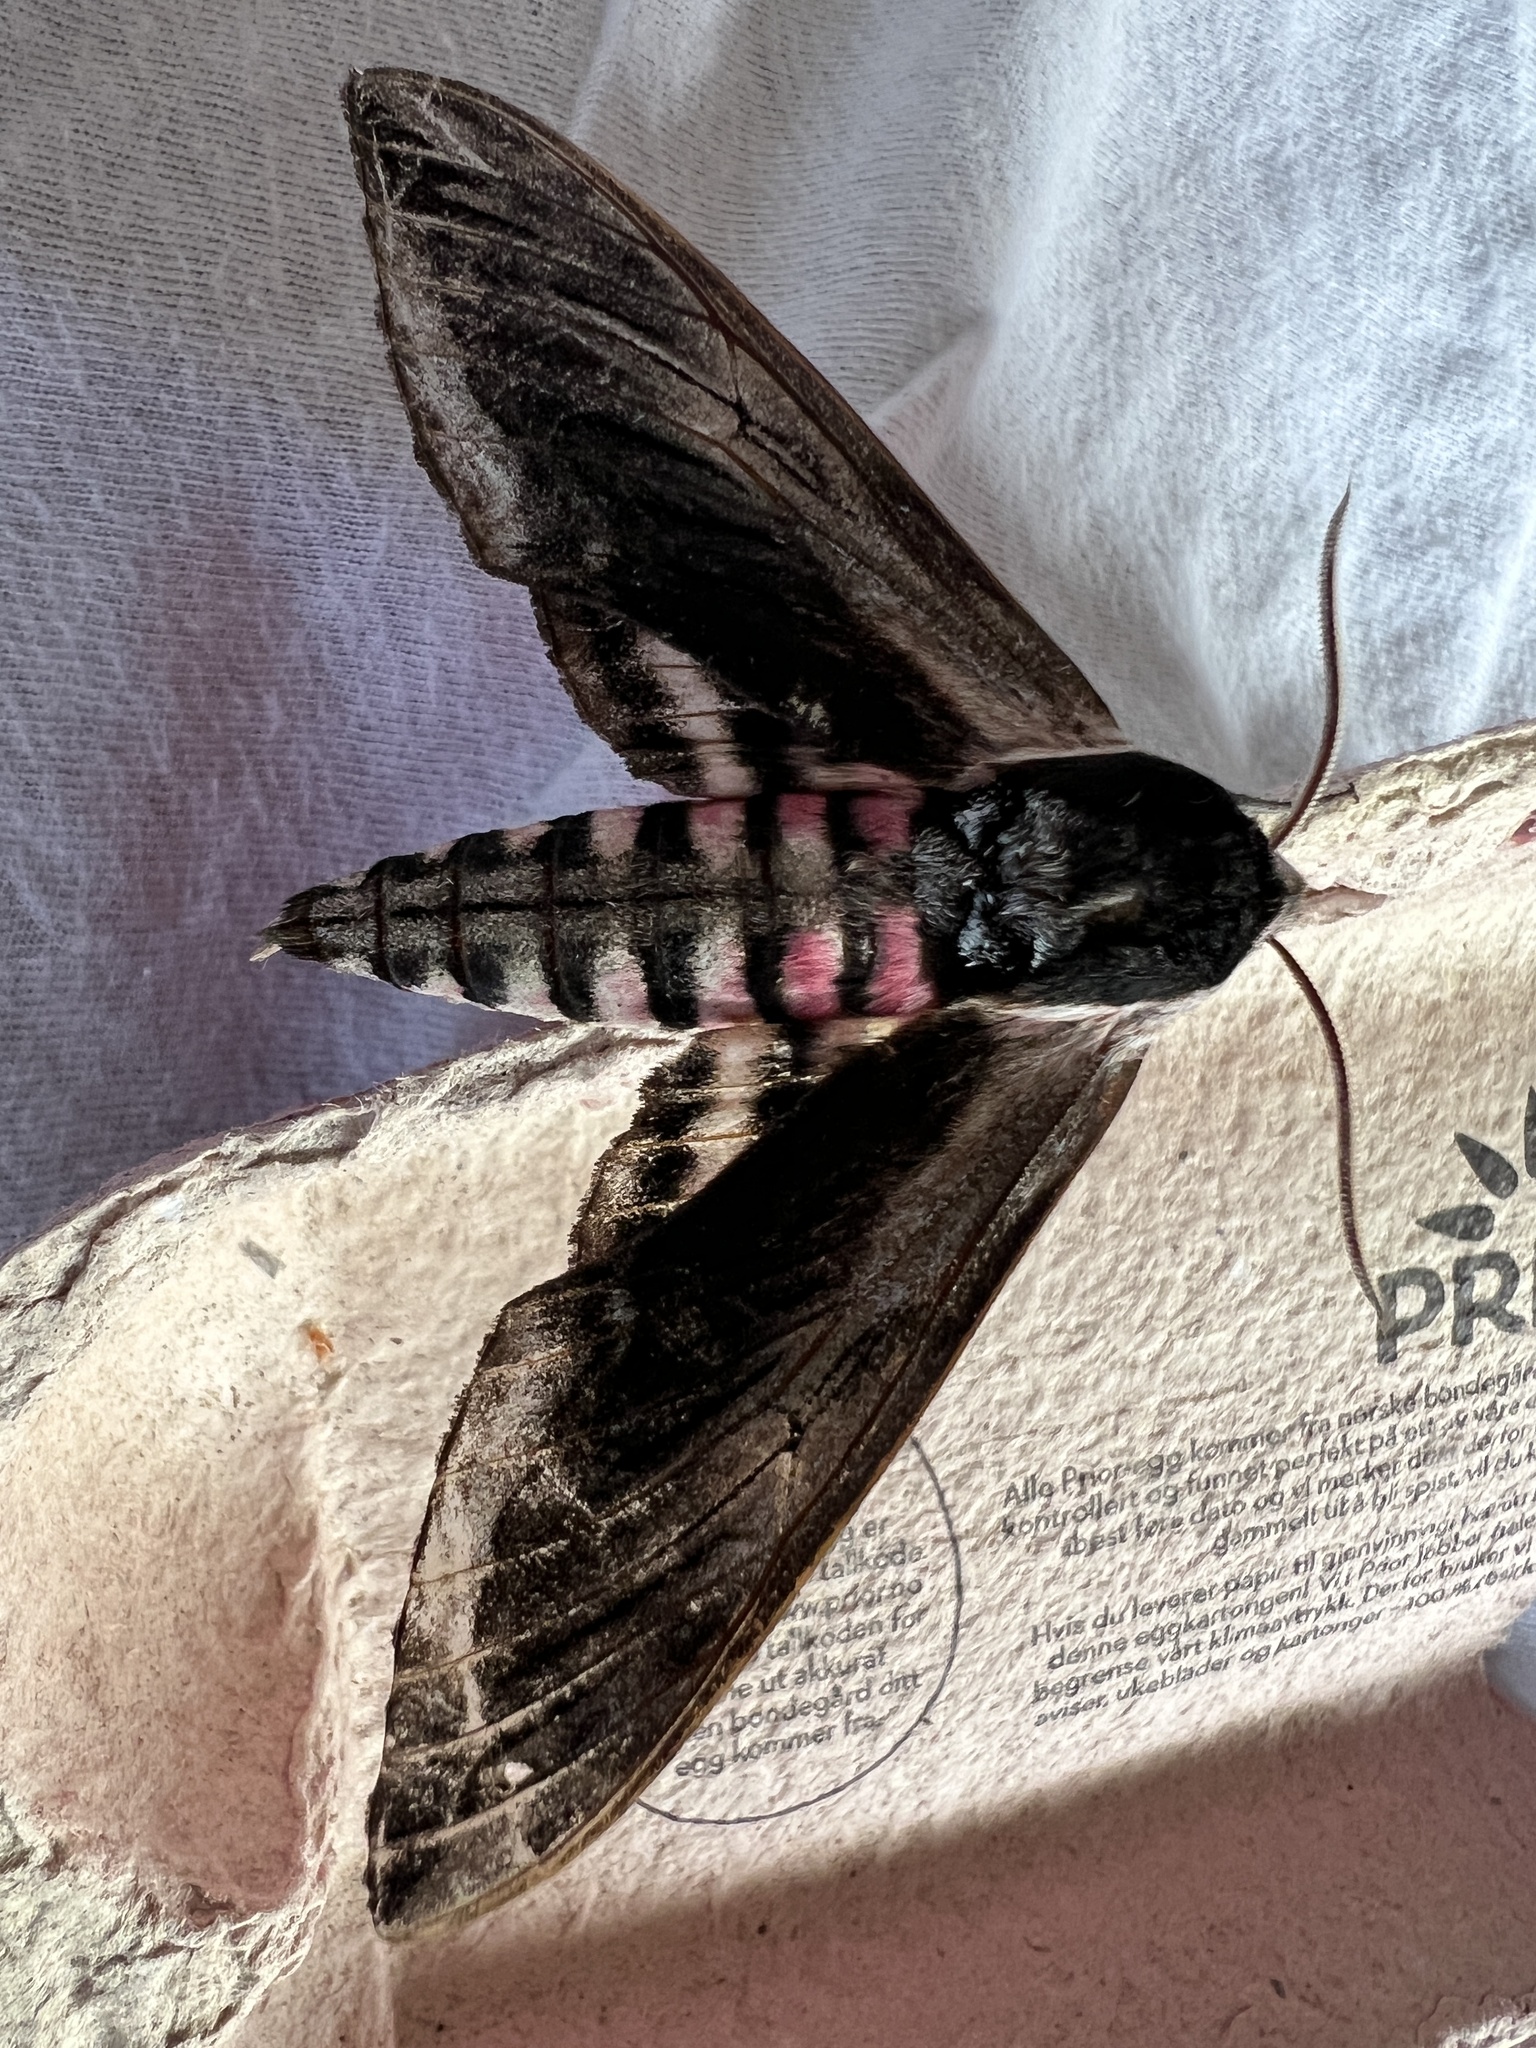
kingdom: Animalia
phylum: Arthropoda
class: Insecta
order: Lepidoptera
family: Sphingidae
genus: Sphinx
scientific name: Sphinx ligustri
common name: Privet hawk-moth
